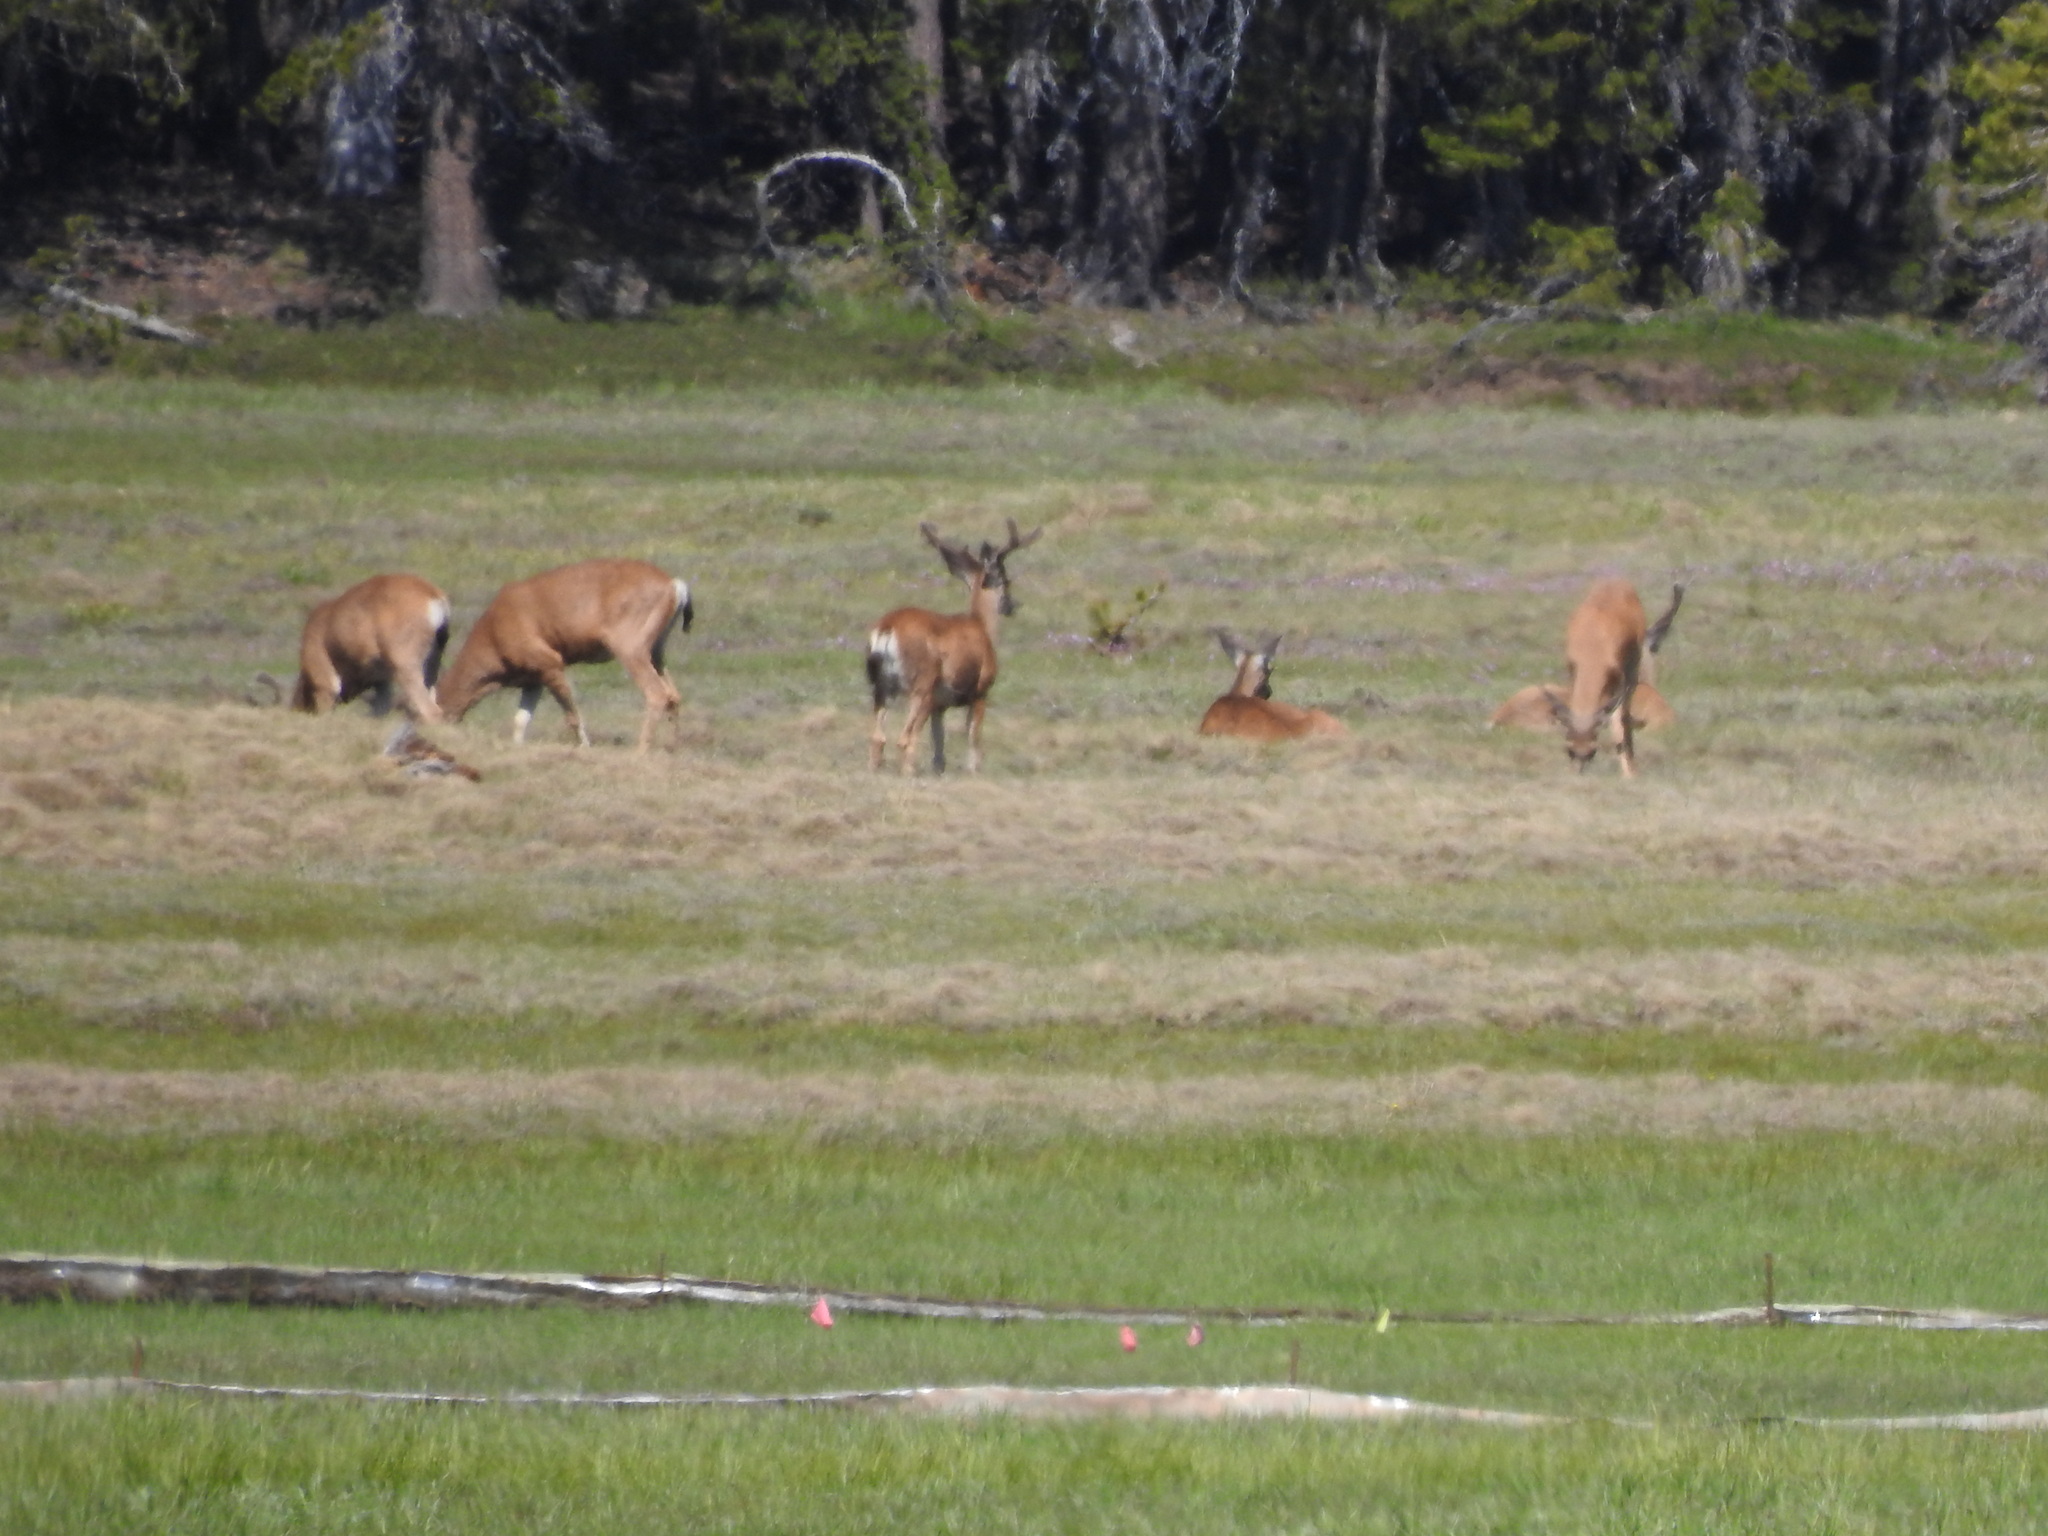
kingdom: Animalia
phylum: Chordata
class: Mammalia
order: Artiodactyla
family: Cervidae
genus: Odocoileus
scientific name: Odocoileus hemionus
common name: Mule deer
